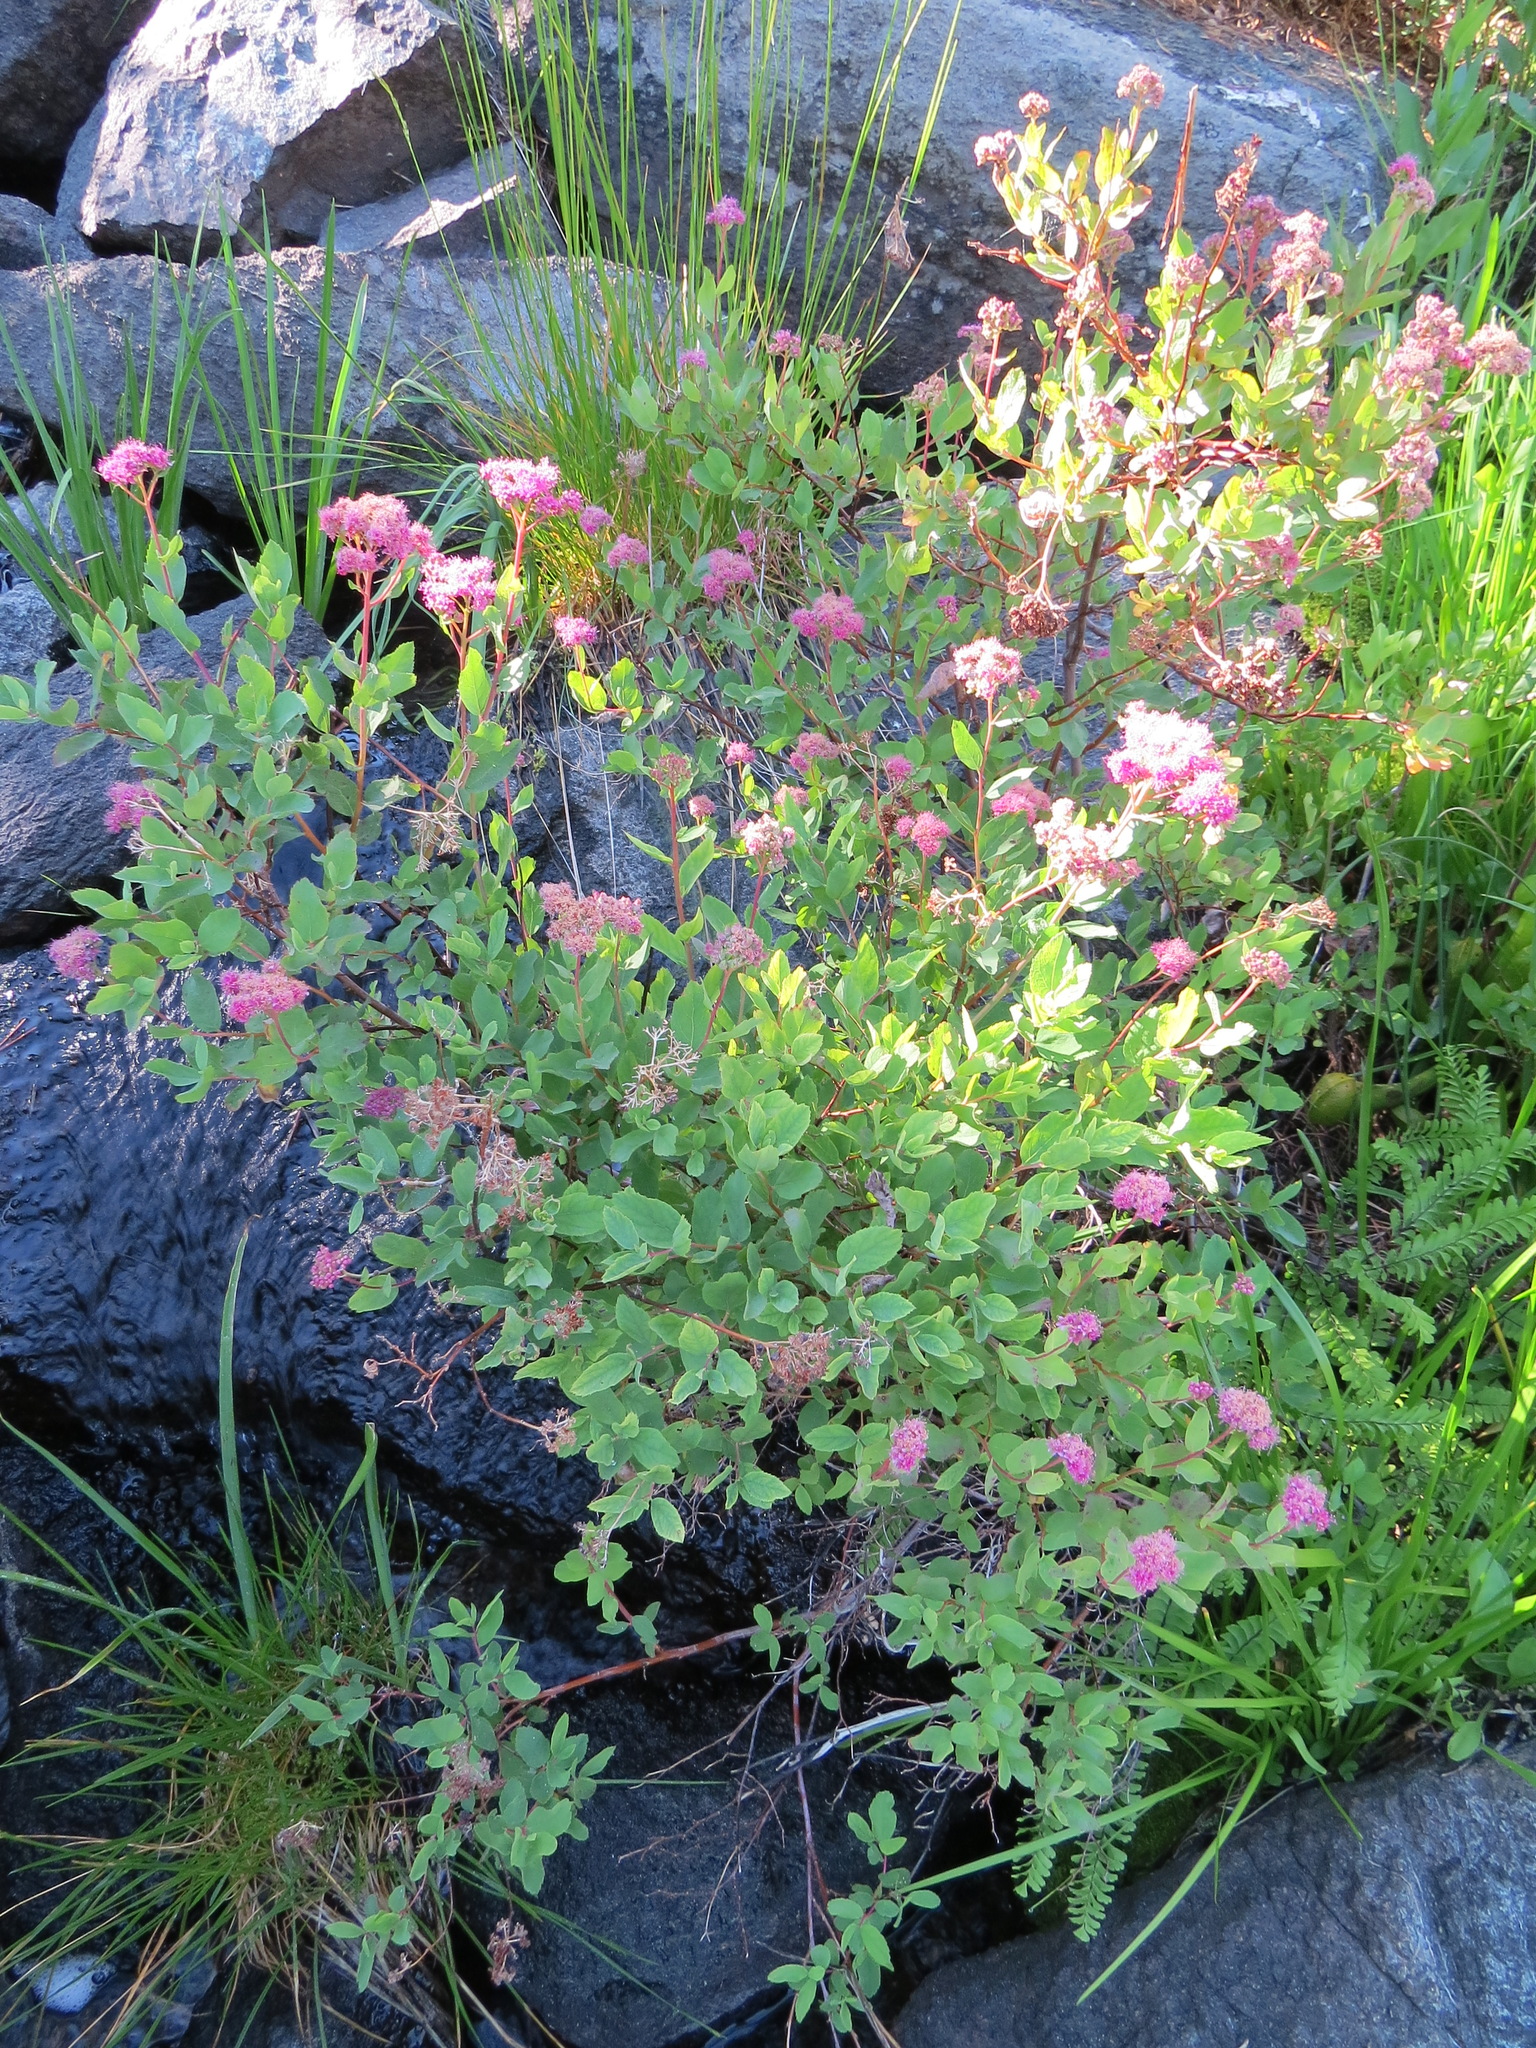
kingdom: Plantae
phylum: Tracheophyta
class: Magnoliopsida
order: Rosales
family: Rosaceae
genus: Spiraea
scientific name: Spiraea splendens
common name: Subalpine meadowsweet
